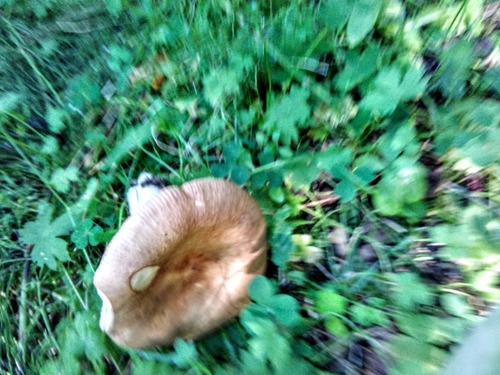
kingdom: Fungi
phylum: Basidiomycota
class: Agaricomycetes
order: Russulales
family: Russulaceae
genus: Russula
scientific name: Russula
